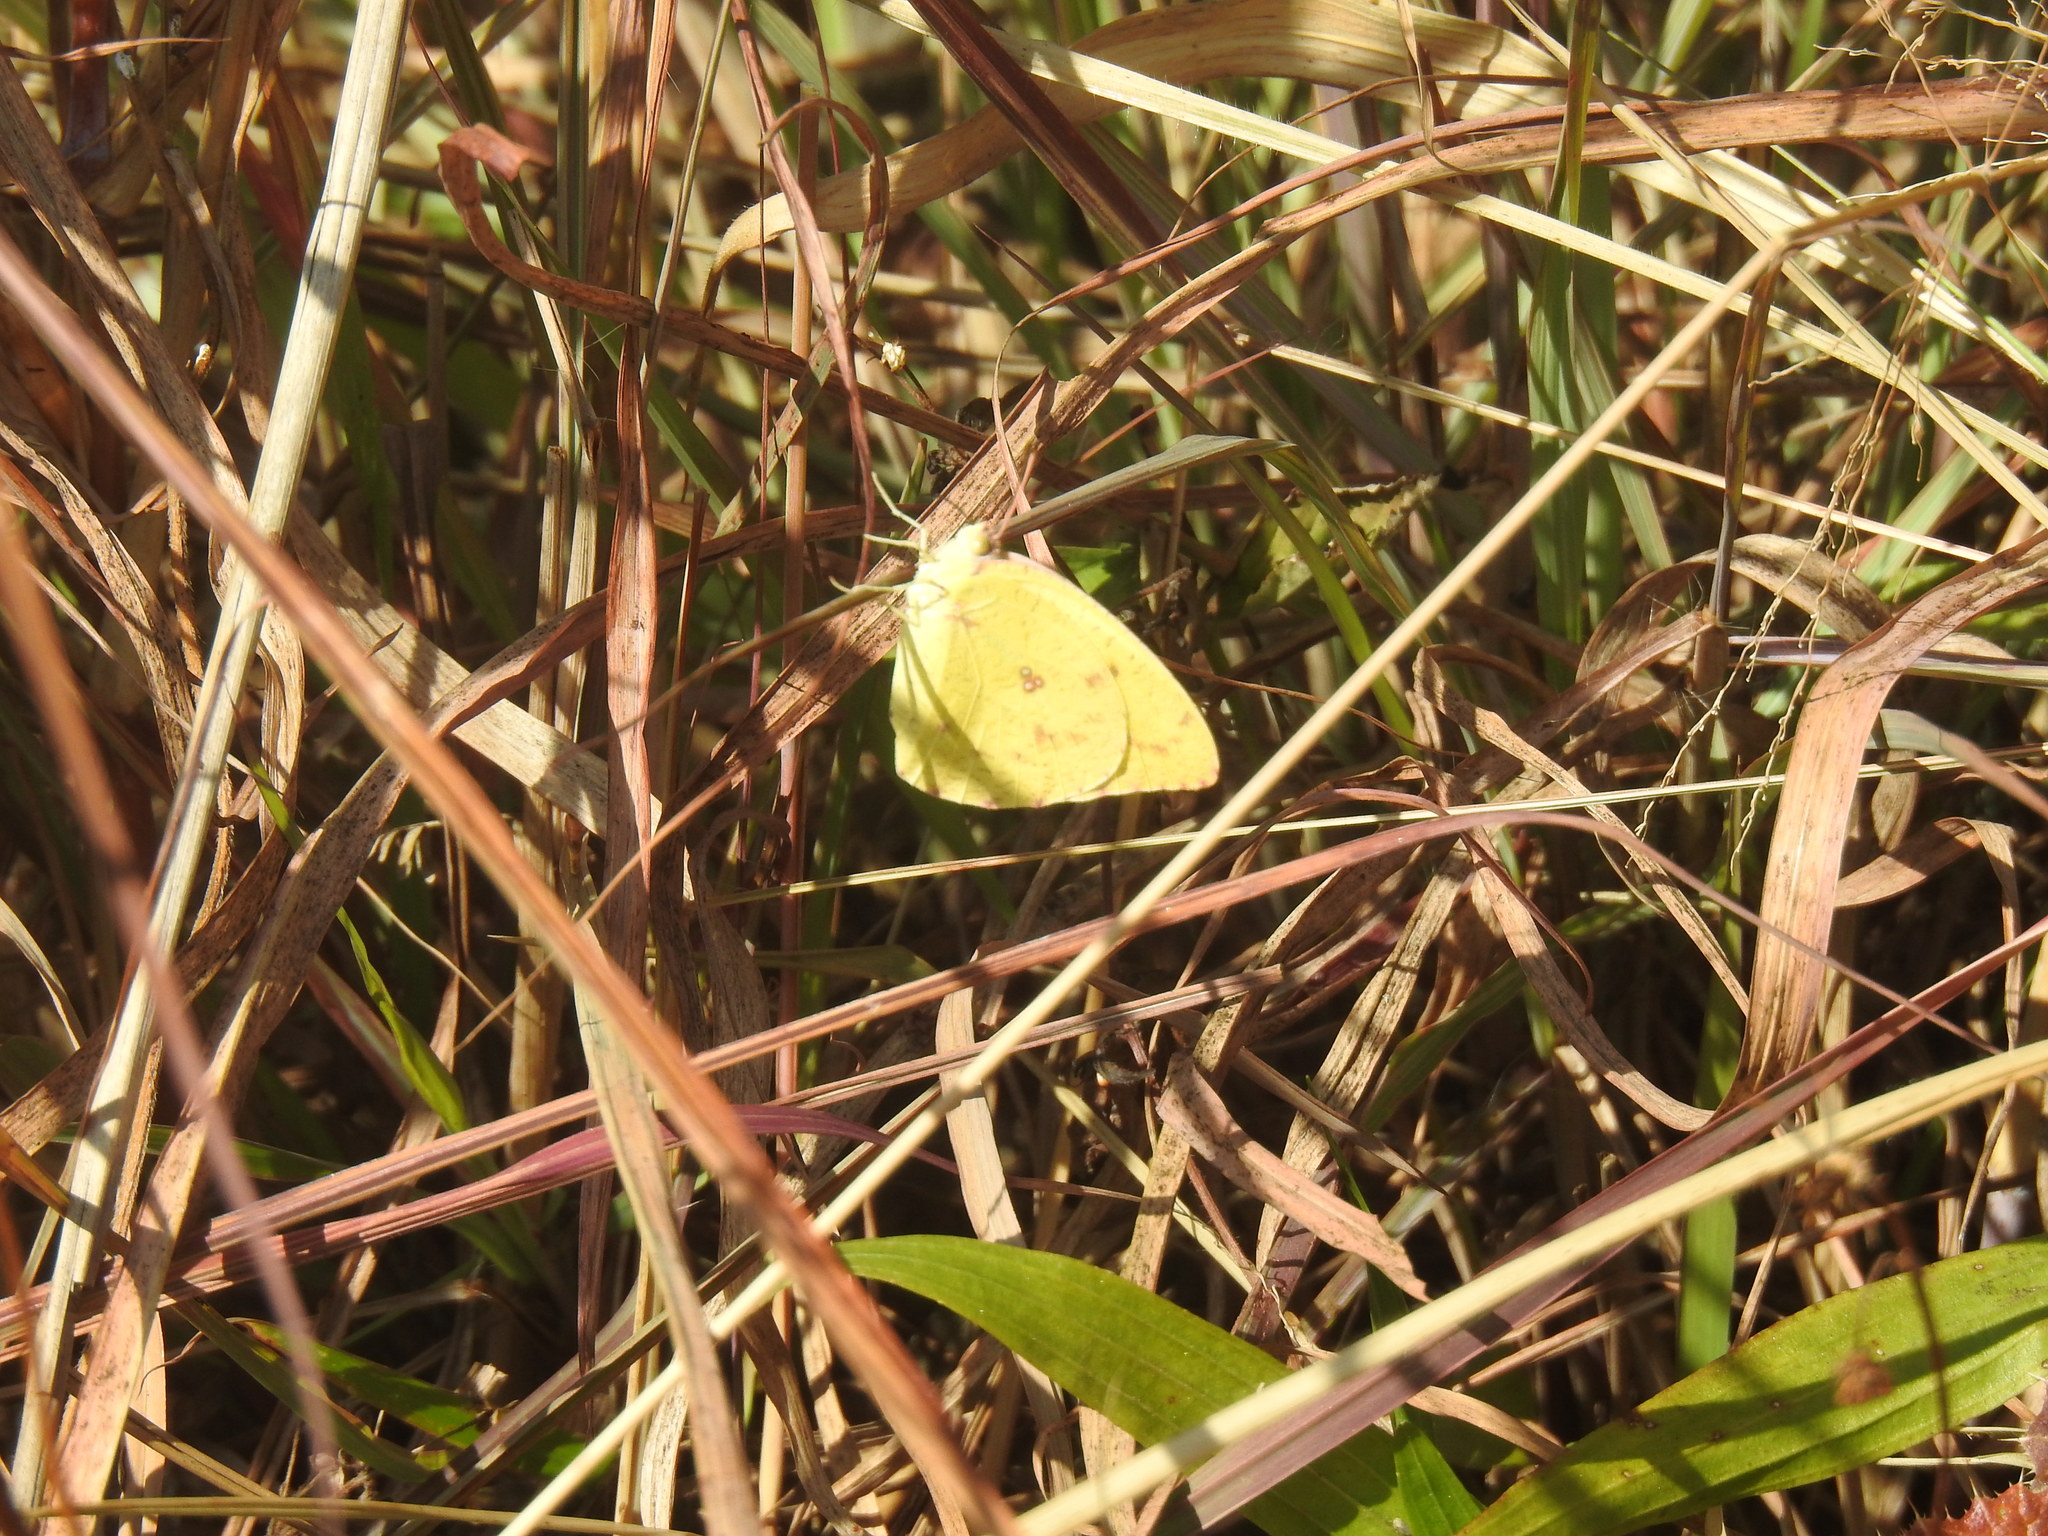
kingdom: Animalia
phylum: Arthropoda
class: Insecta
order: Lepidoptera
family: Pieridae
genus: Catopsilia
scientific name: Catopsilia florella
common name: African migrant
